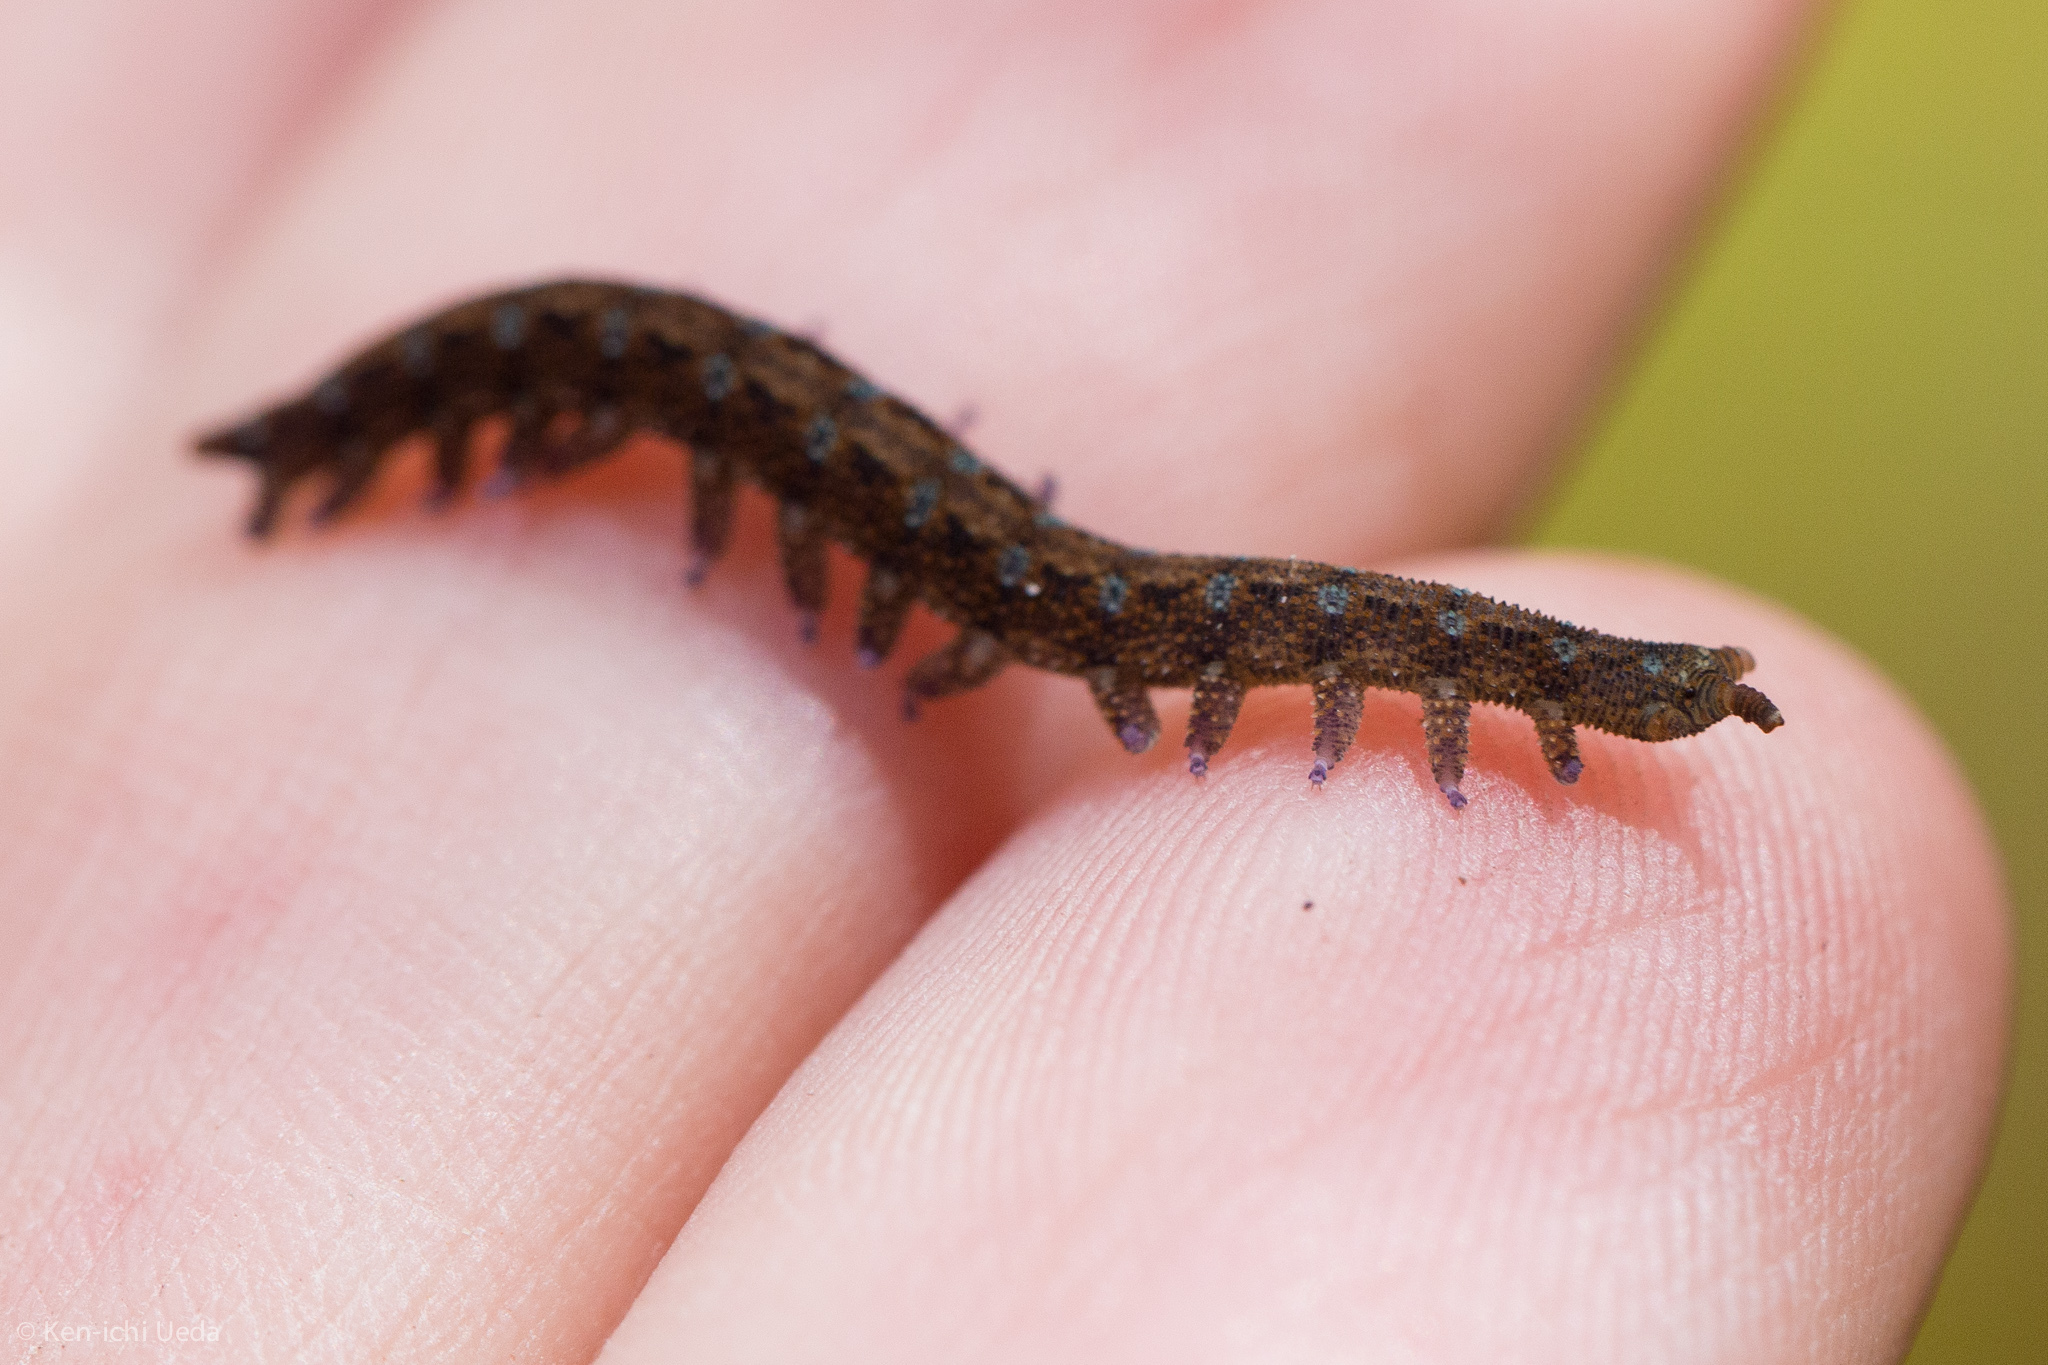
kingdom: Animalia
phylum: Onychophora
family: Peripatopsidae
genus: Ooperipatellus
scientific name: Ooperipatellus viridimaculatus
